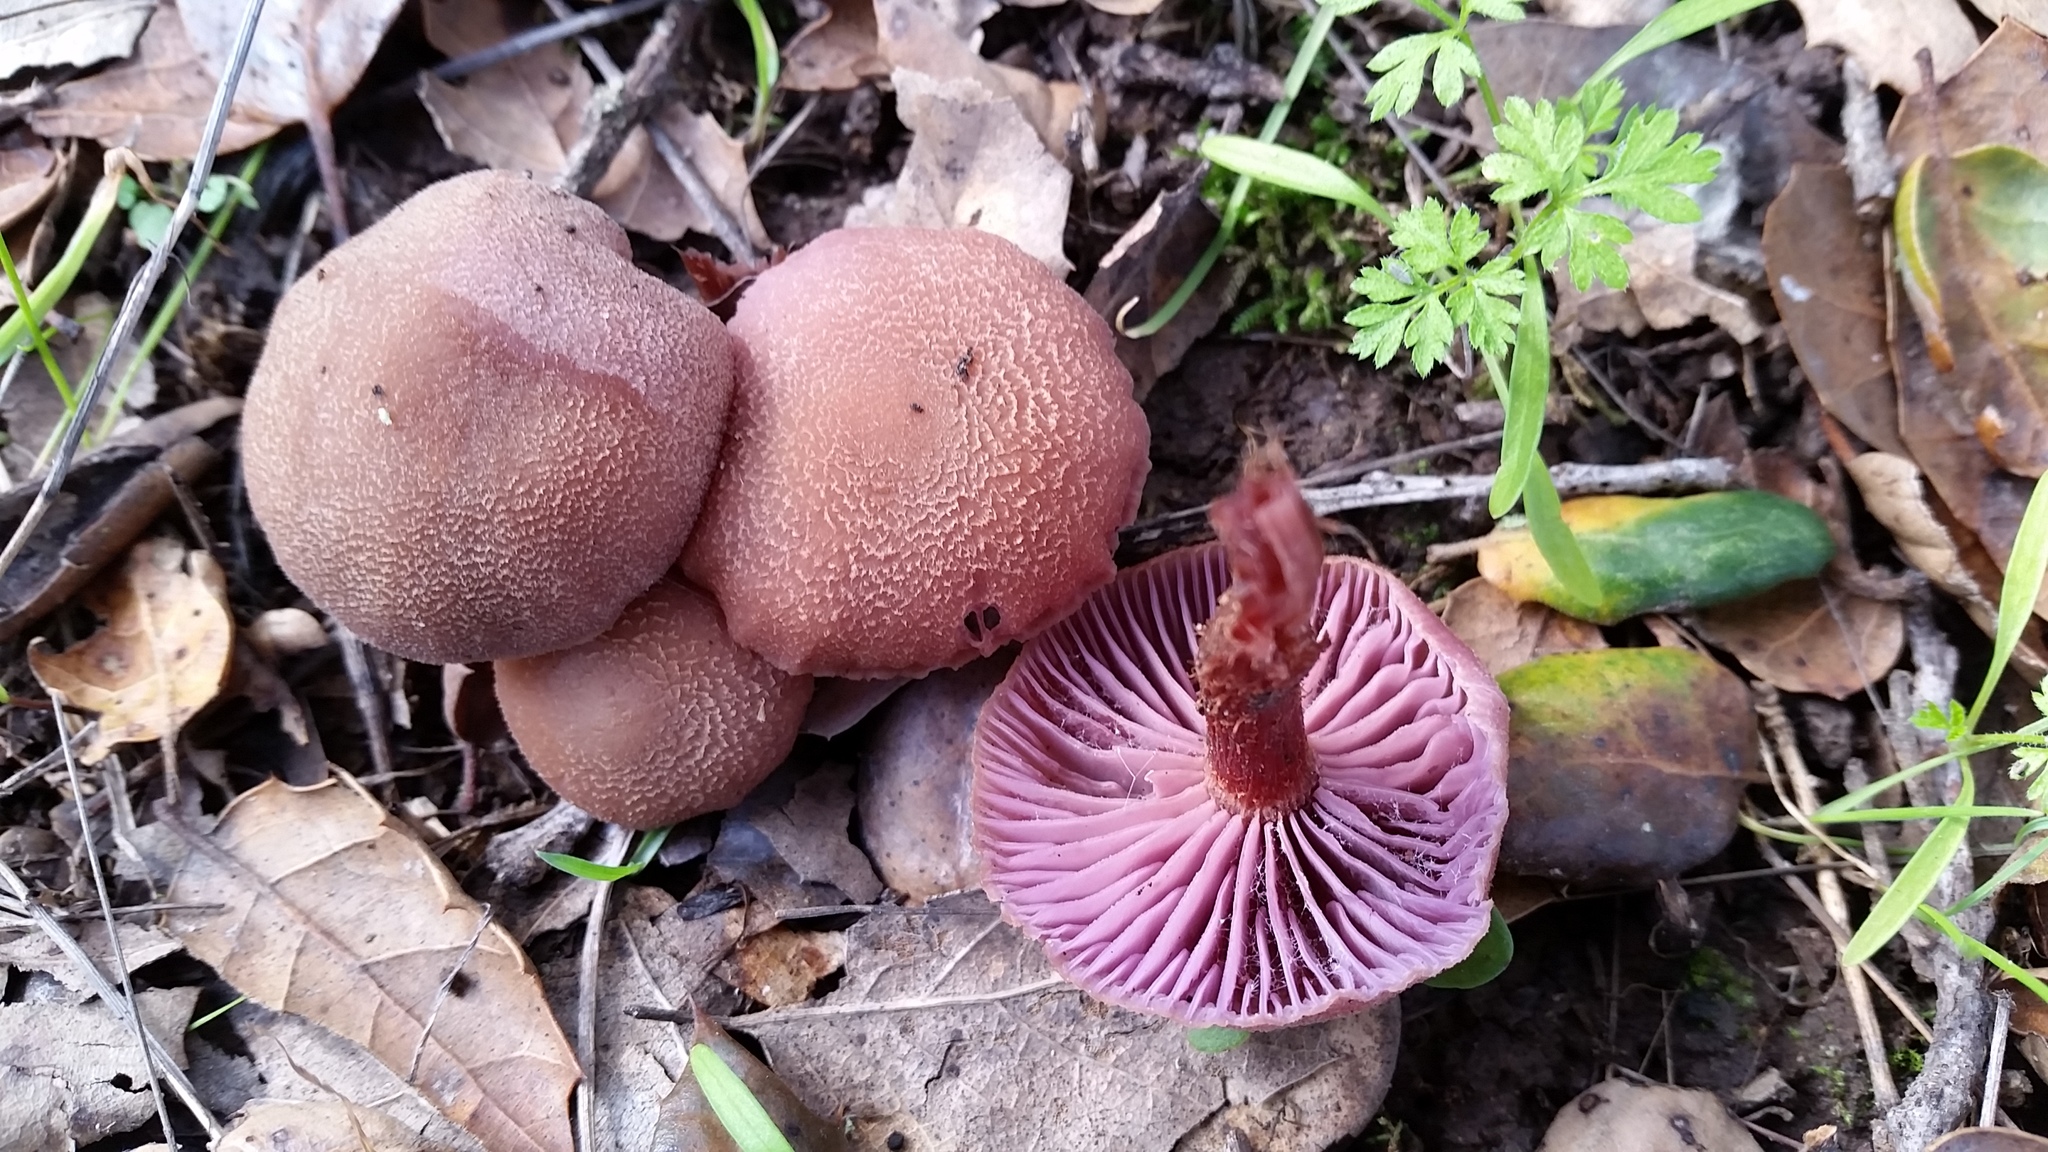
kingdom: Fungi
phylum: Basidiomycota
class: Agaricomycetes
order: Agaricales
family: Hydnangiaceae
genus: Laccaria
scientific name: Laccaria amethysteo-occidentalis
